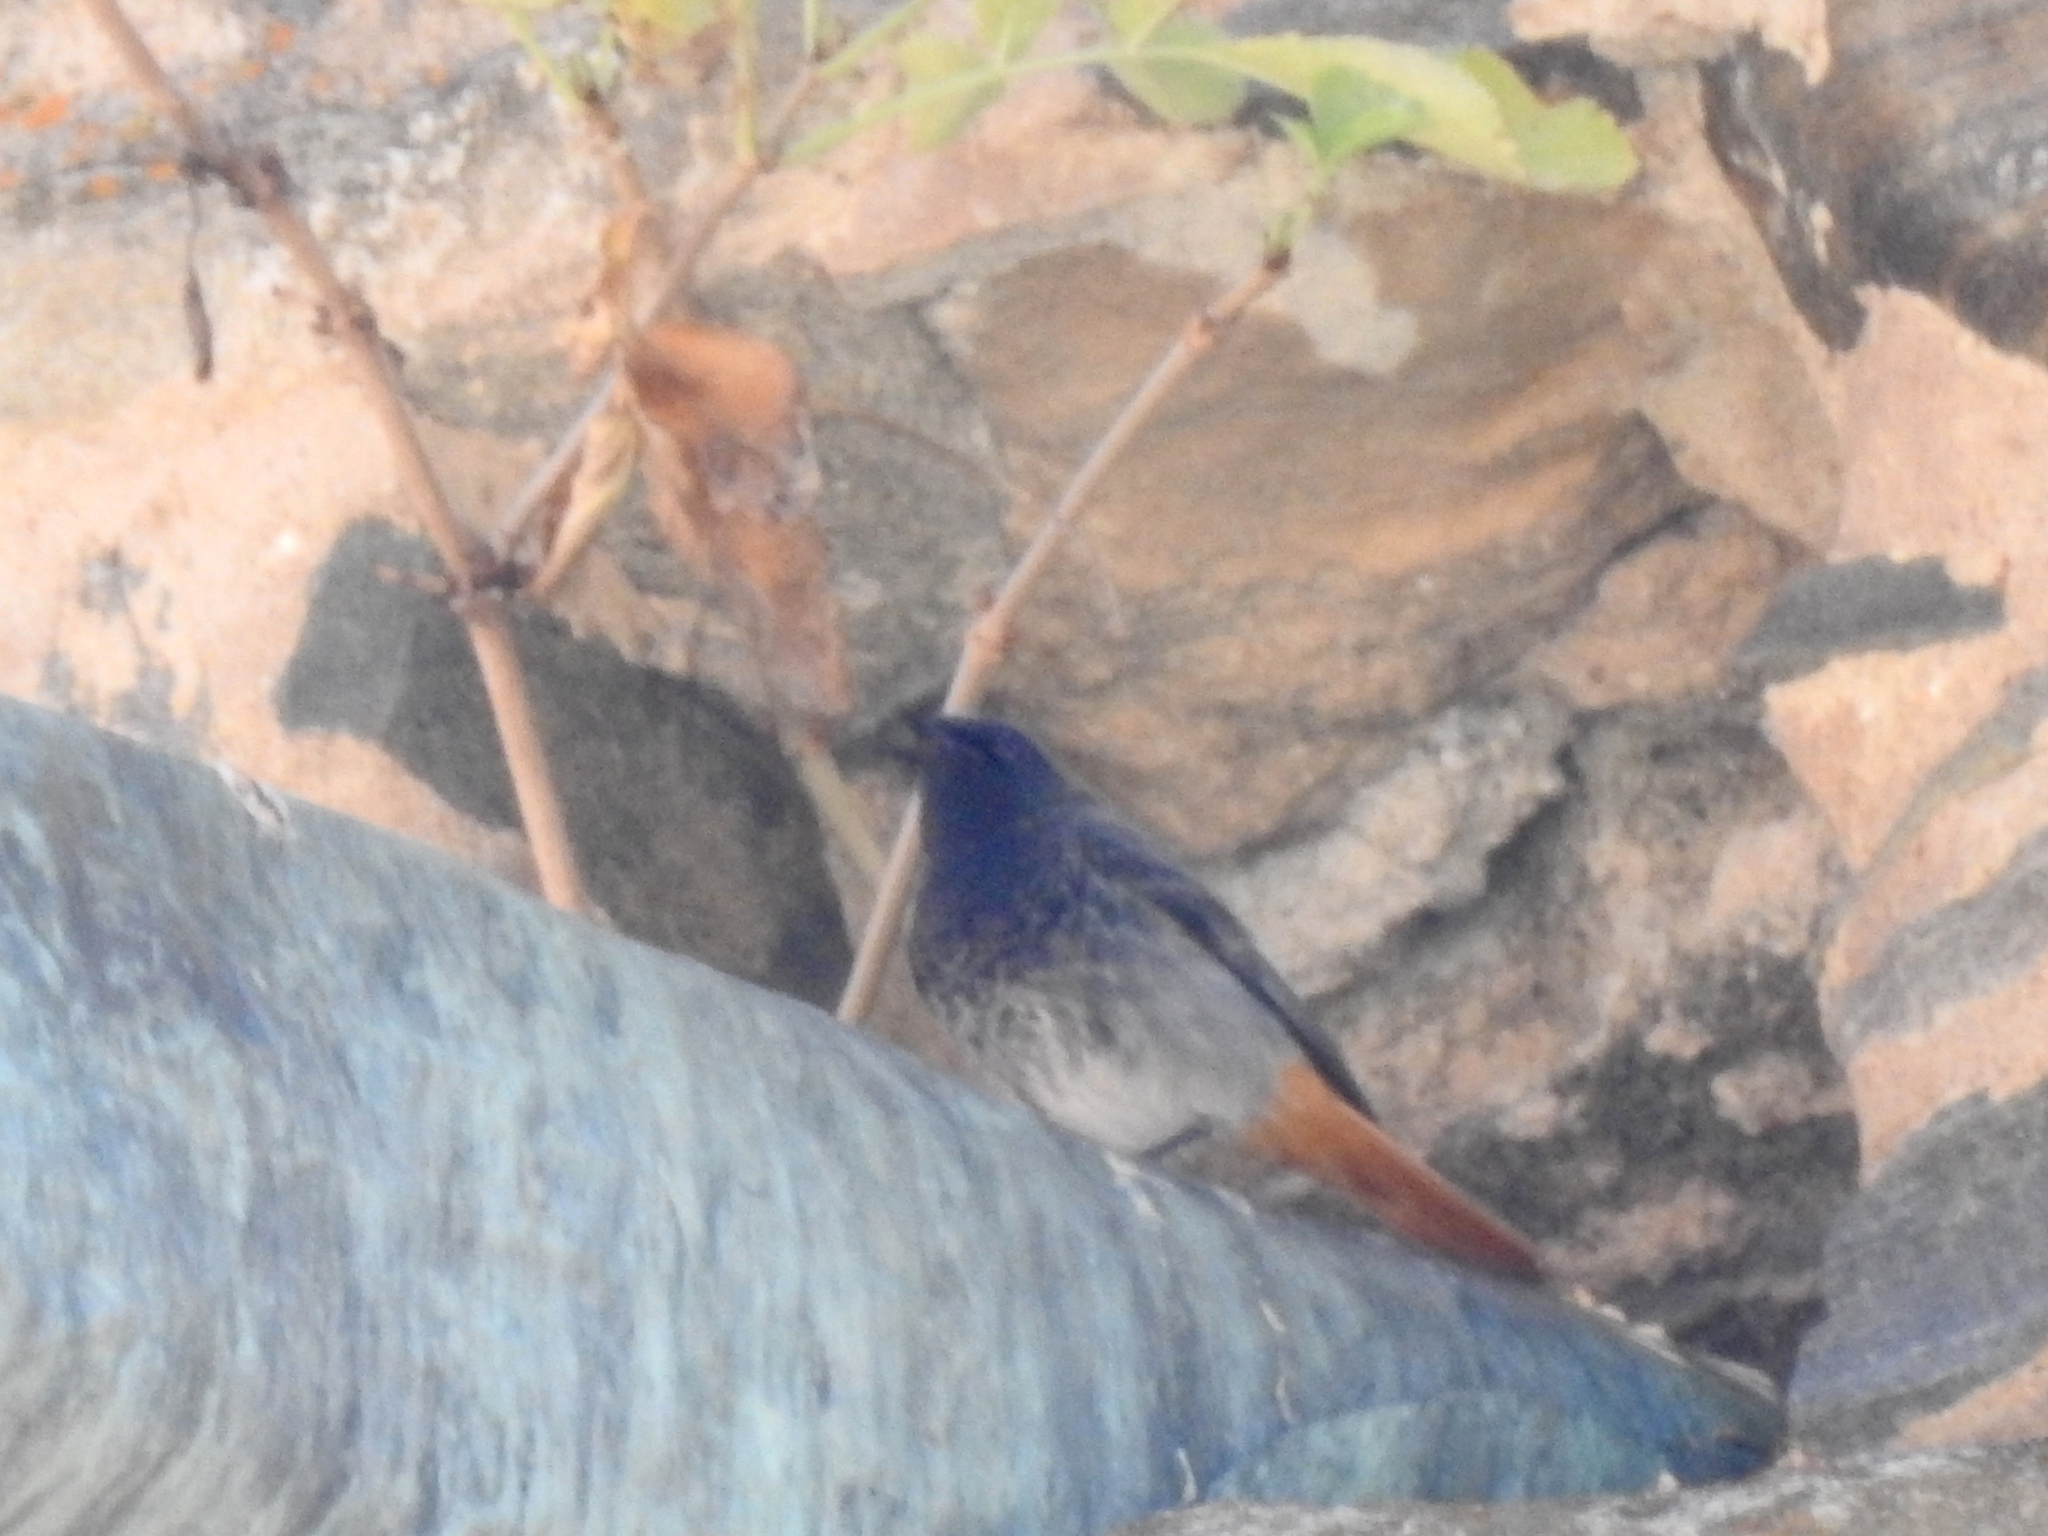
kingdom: Animalia
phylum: Chordata
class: Aves
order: Passeriformes
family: Muscicapidae
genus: Phoenicurus
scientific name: Phoenicurus ochruros
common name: Black redstart
